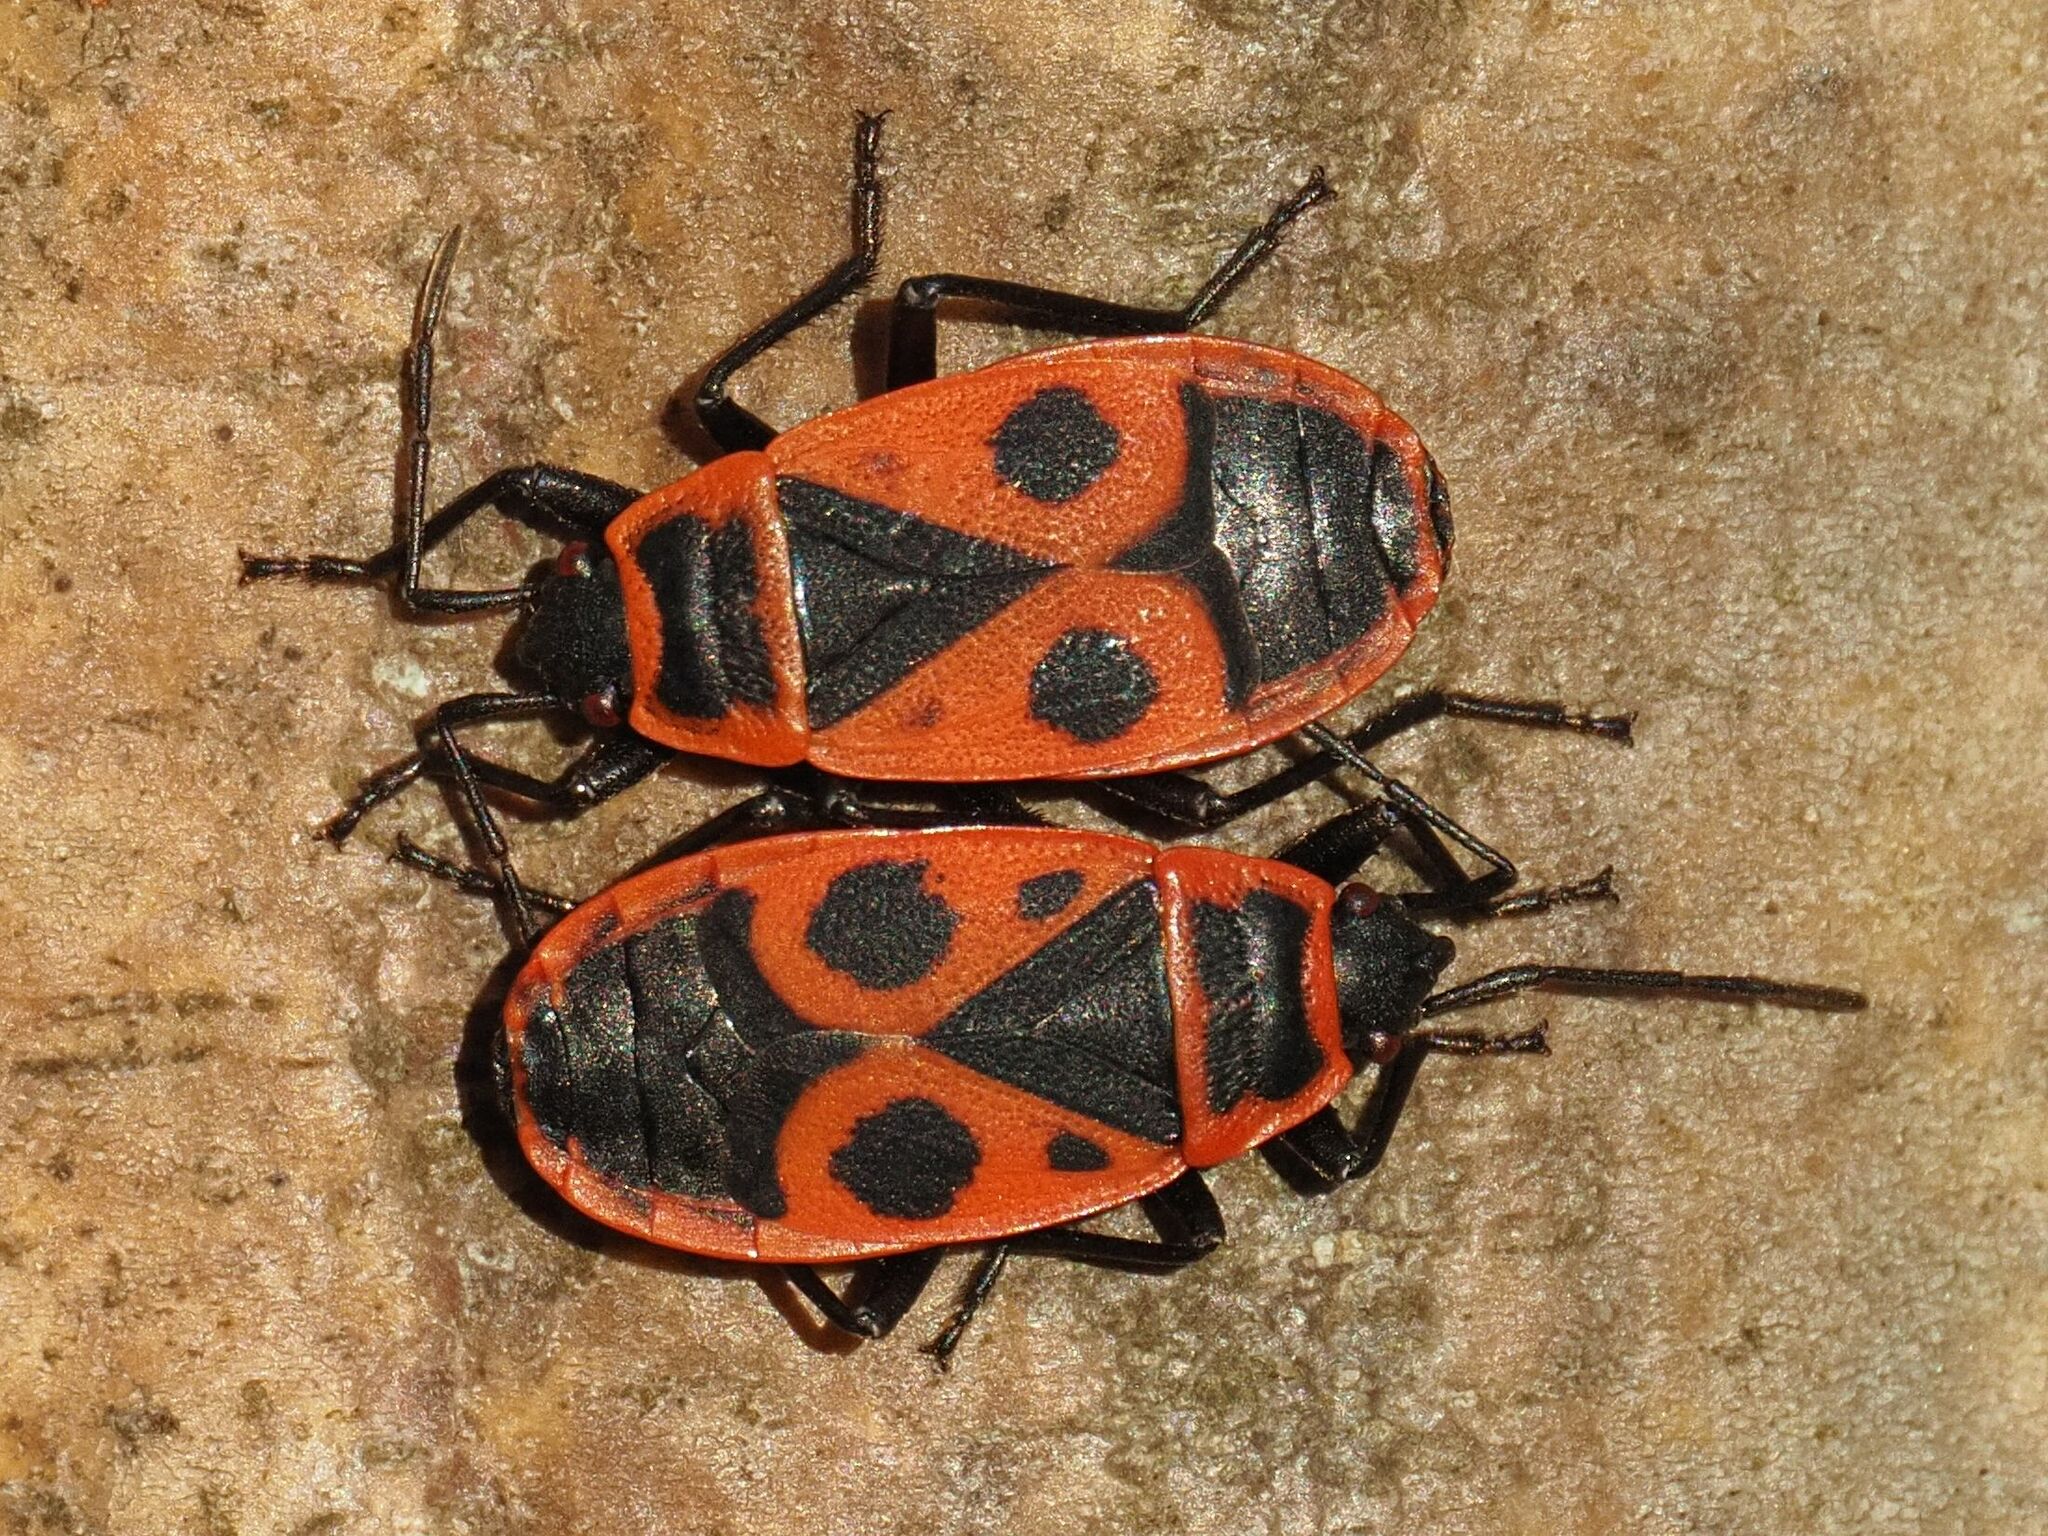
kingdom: Animalia
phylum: Arthropoda
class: Insecta
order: Hemiptera
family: Pyrrhocoridae
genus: Pyrrhocoris
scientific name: Pyrrhocoris apterus
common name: Firebug
